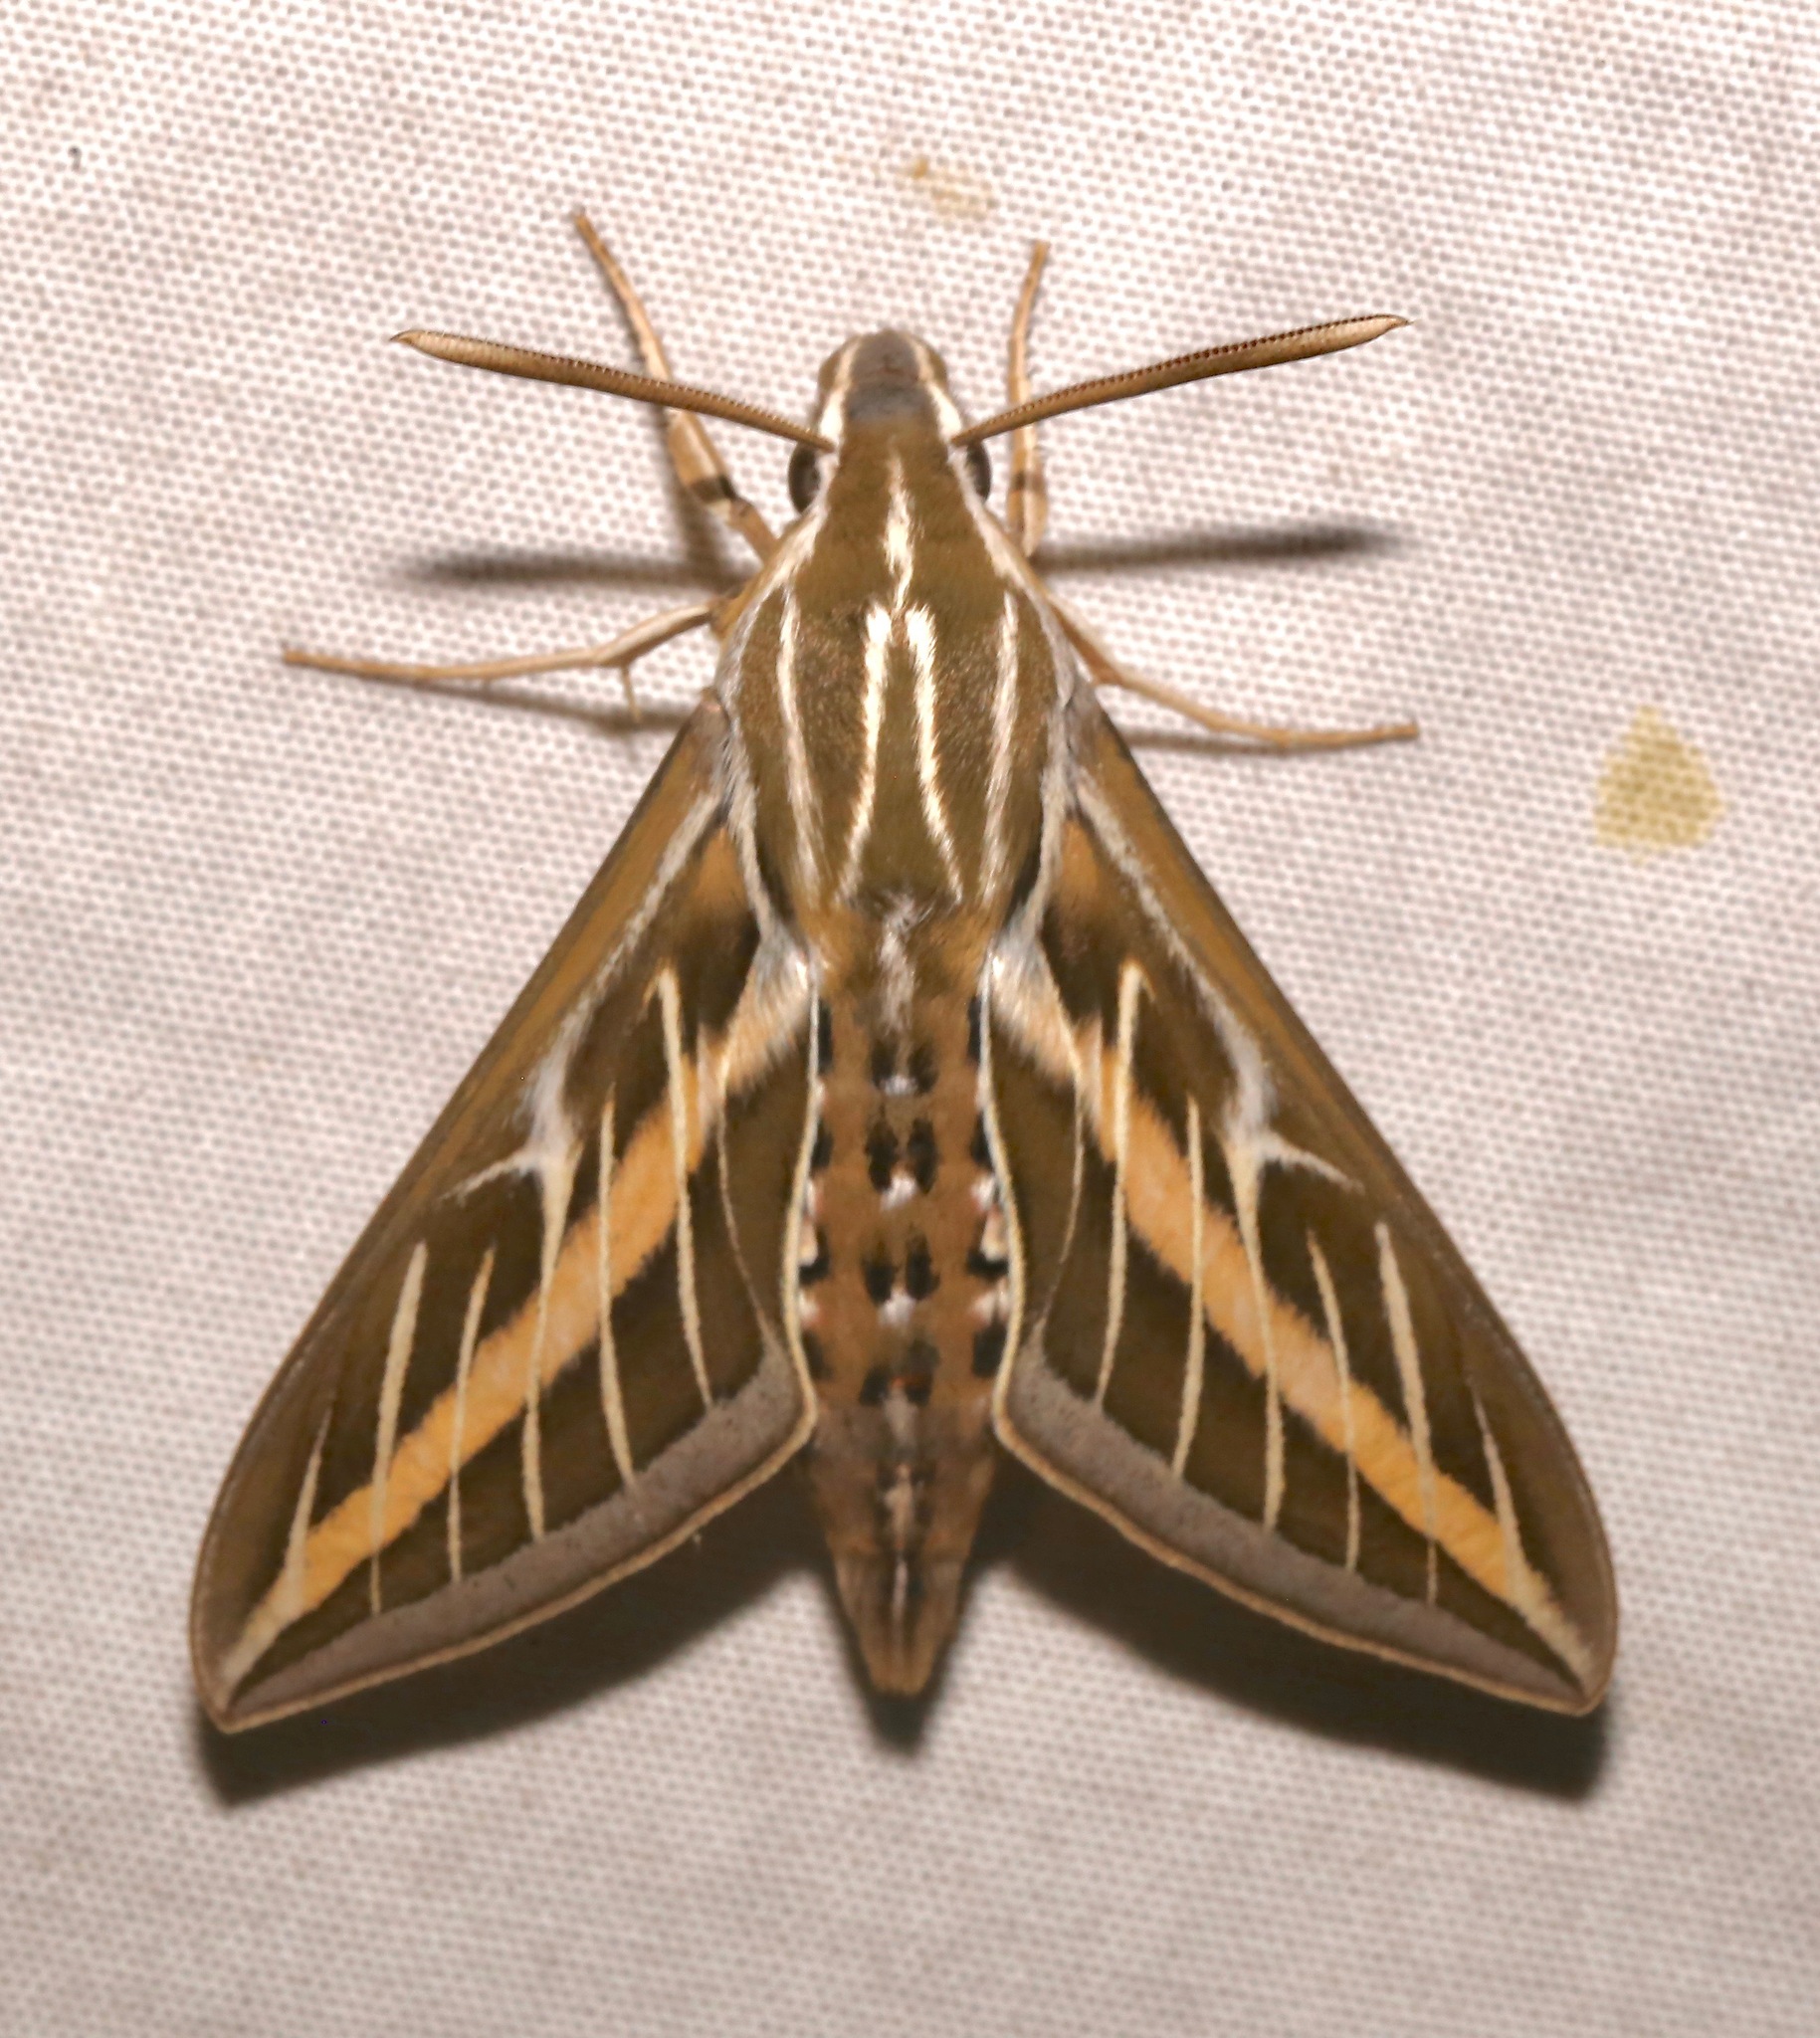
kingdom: Animalia
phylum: Arthropoda
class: Insecta
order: Lepidoptera
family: Sphingidae
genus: Hyles
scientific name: Hyles lineata
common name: White-lined sphinx
